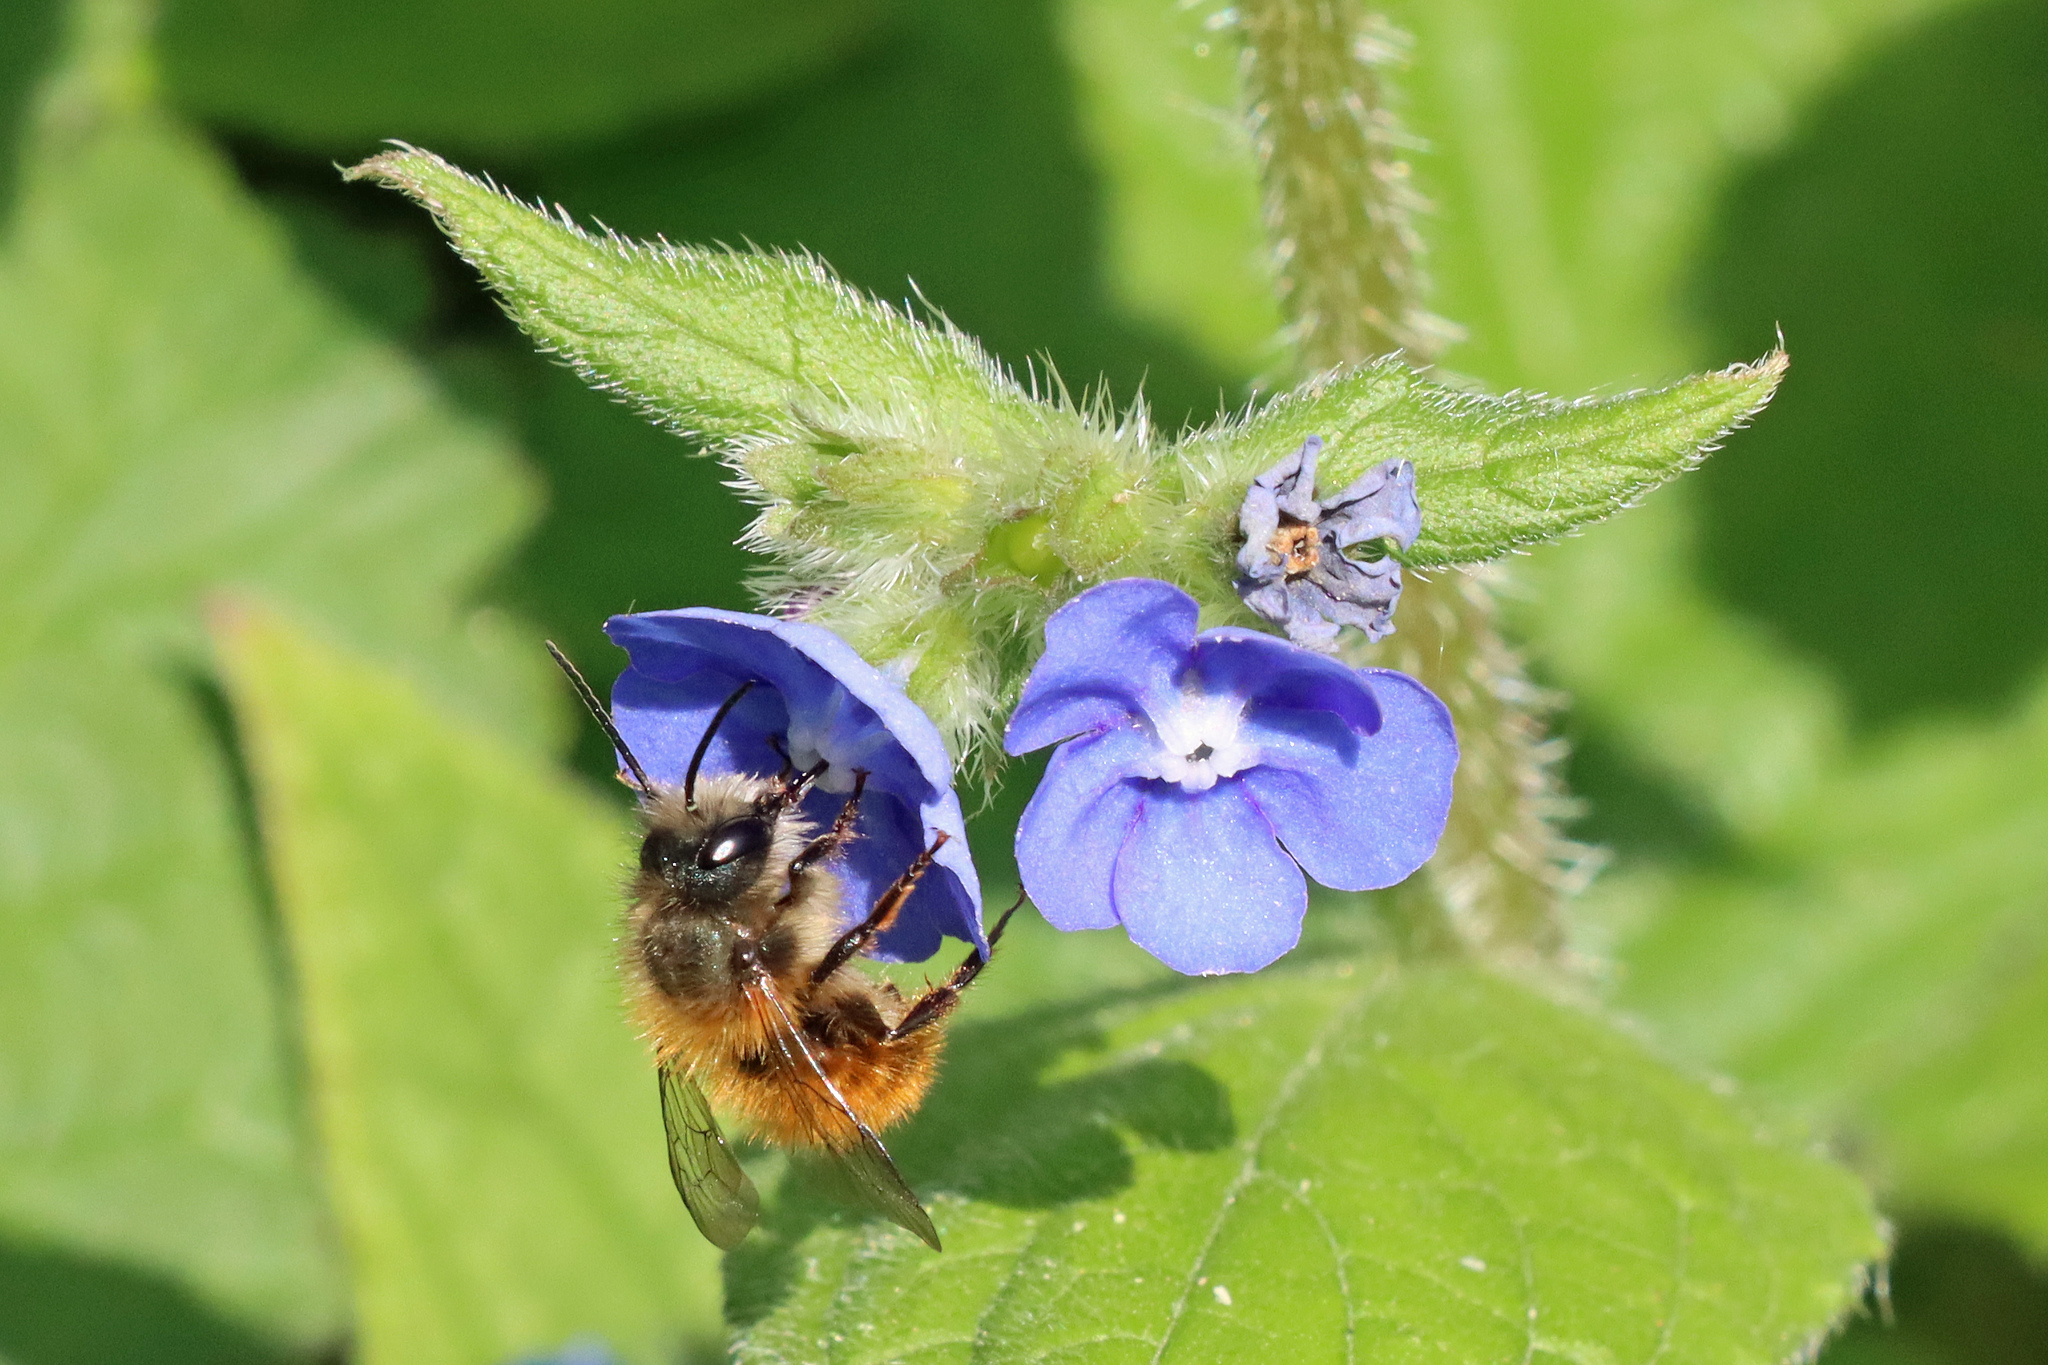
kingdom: Animalia
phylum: Arthropoda
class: Insecta
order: Hymenoptera
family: Megachilidae
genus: Osmia
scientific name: Osmia bicornis
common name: Red mason bee
